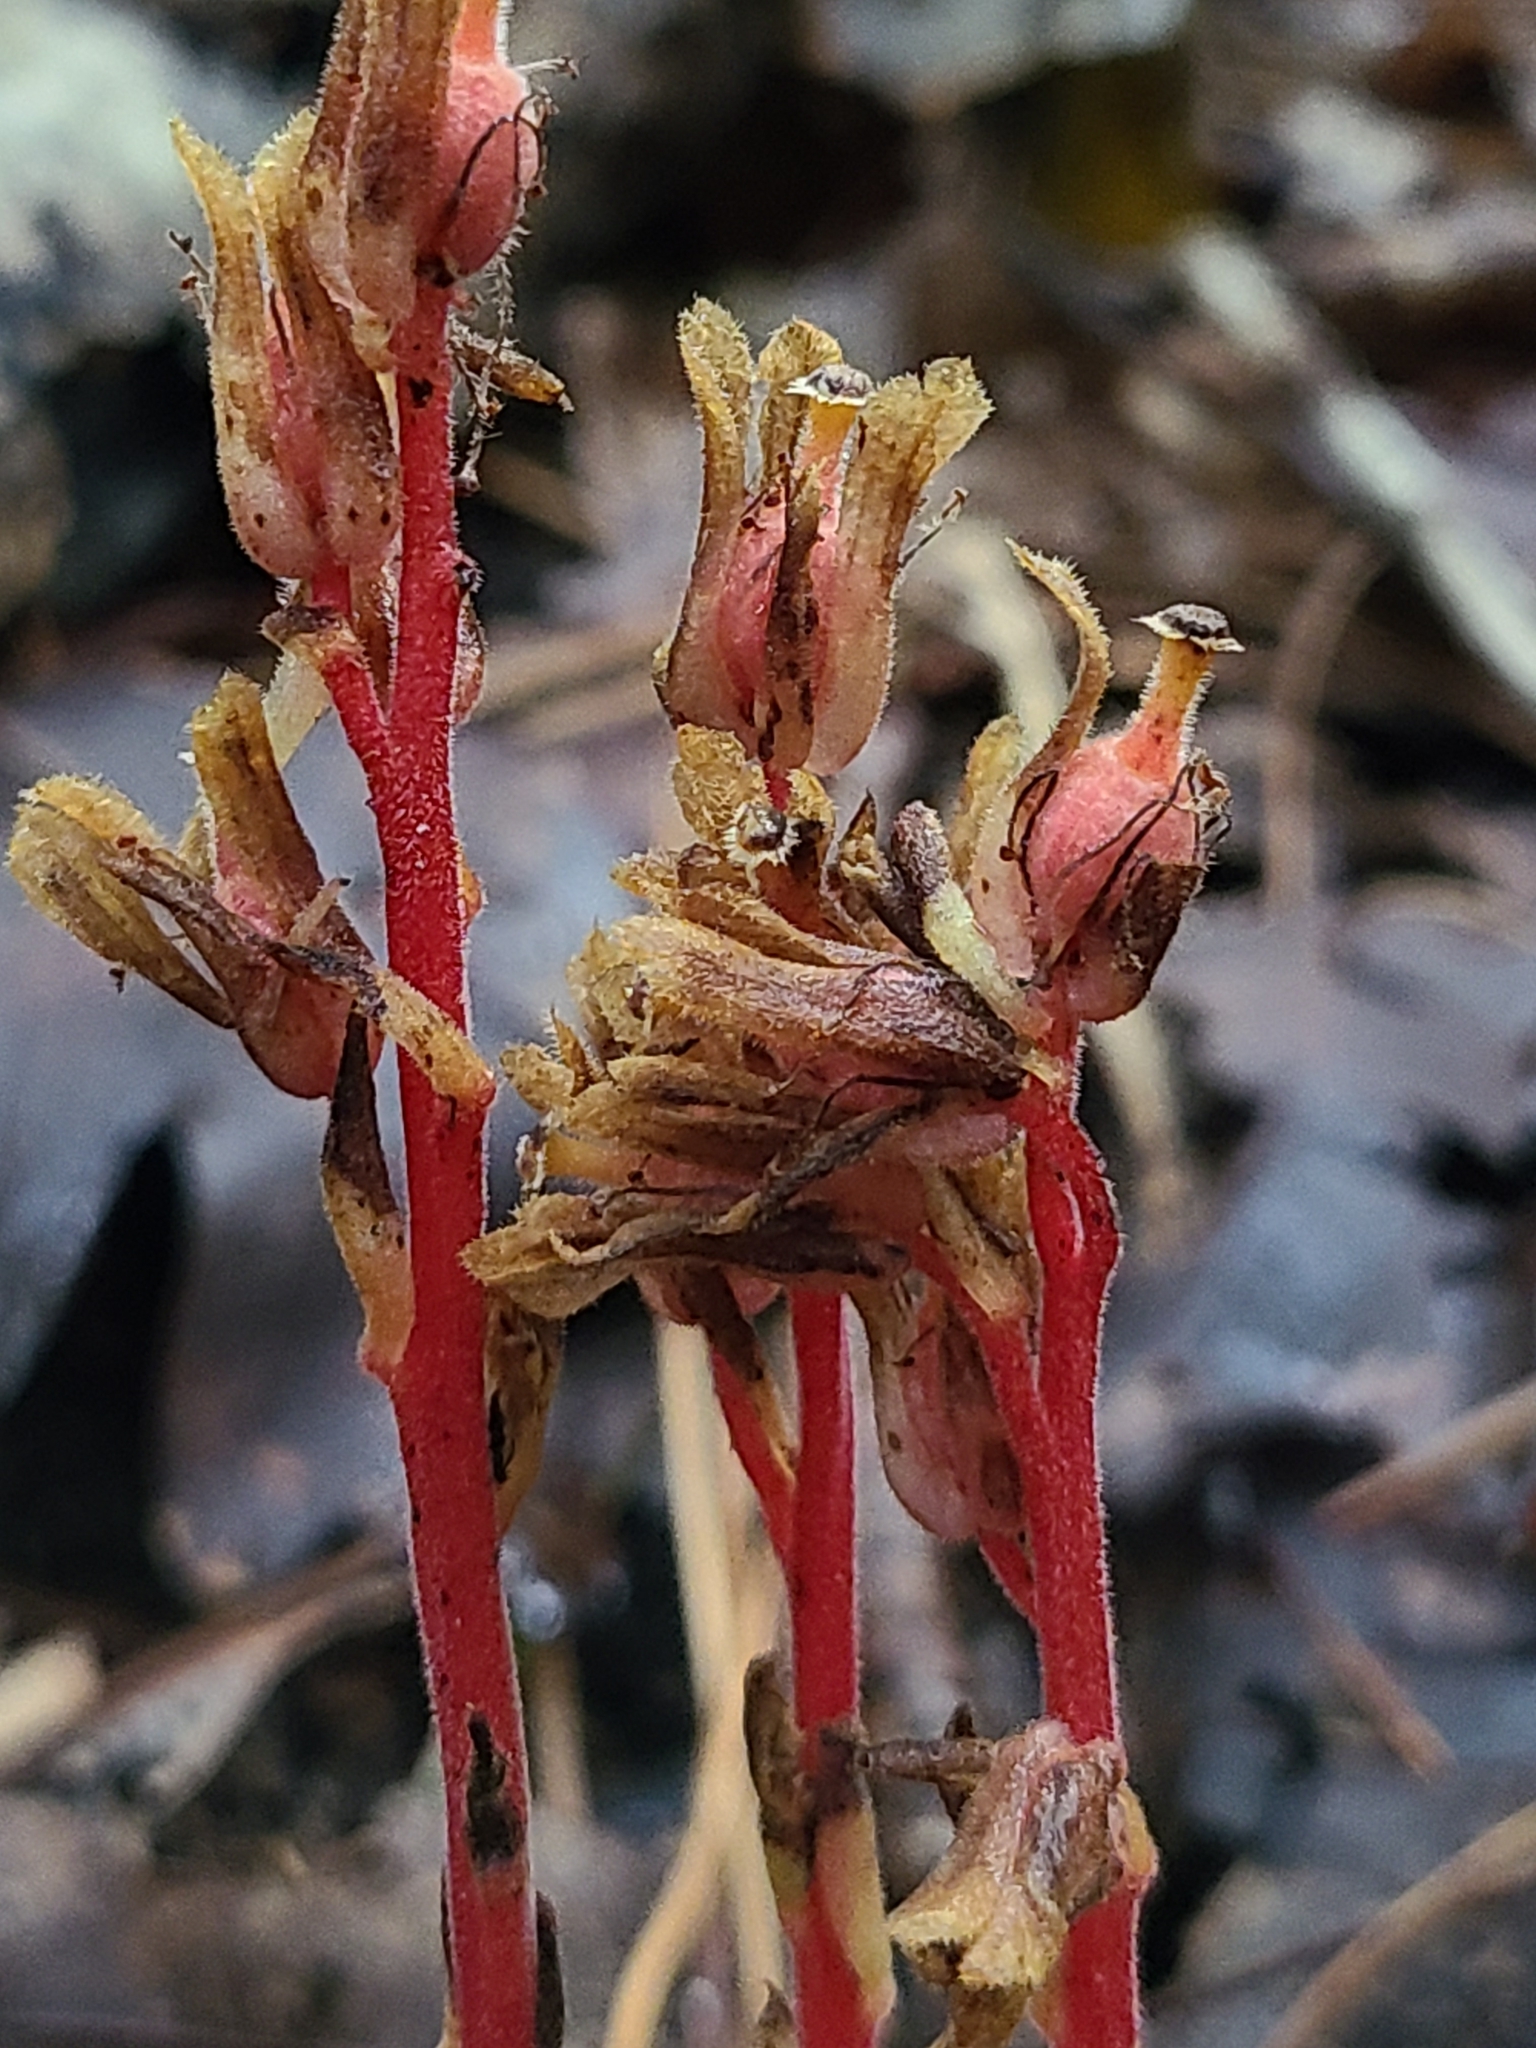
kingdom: Plantae
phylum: Tracheophyta
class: Magnoliopsida
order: Ericales
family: Ericaceae
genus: Hypopitys
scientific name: Hypopitys monotropa
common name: Yellow bird's-nest
